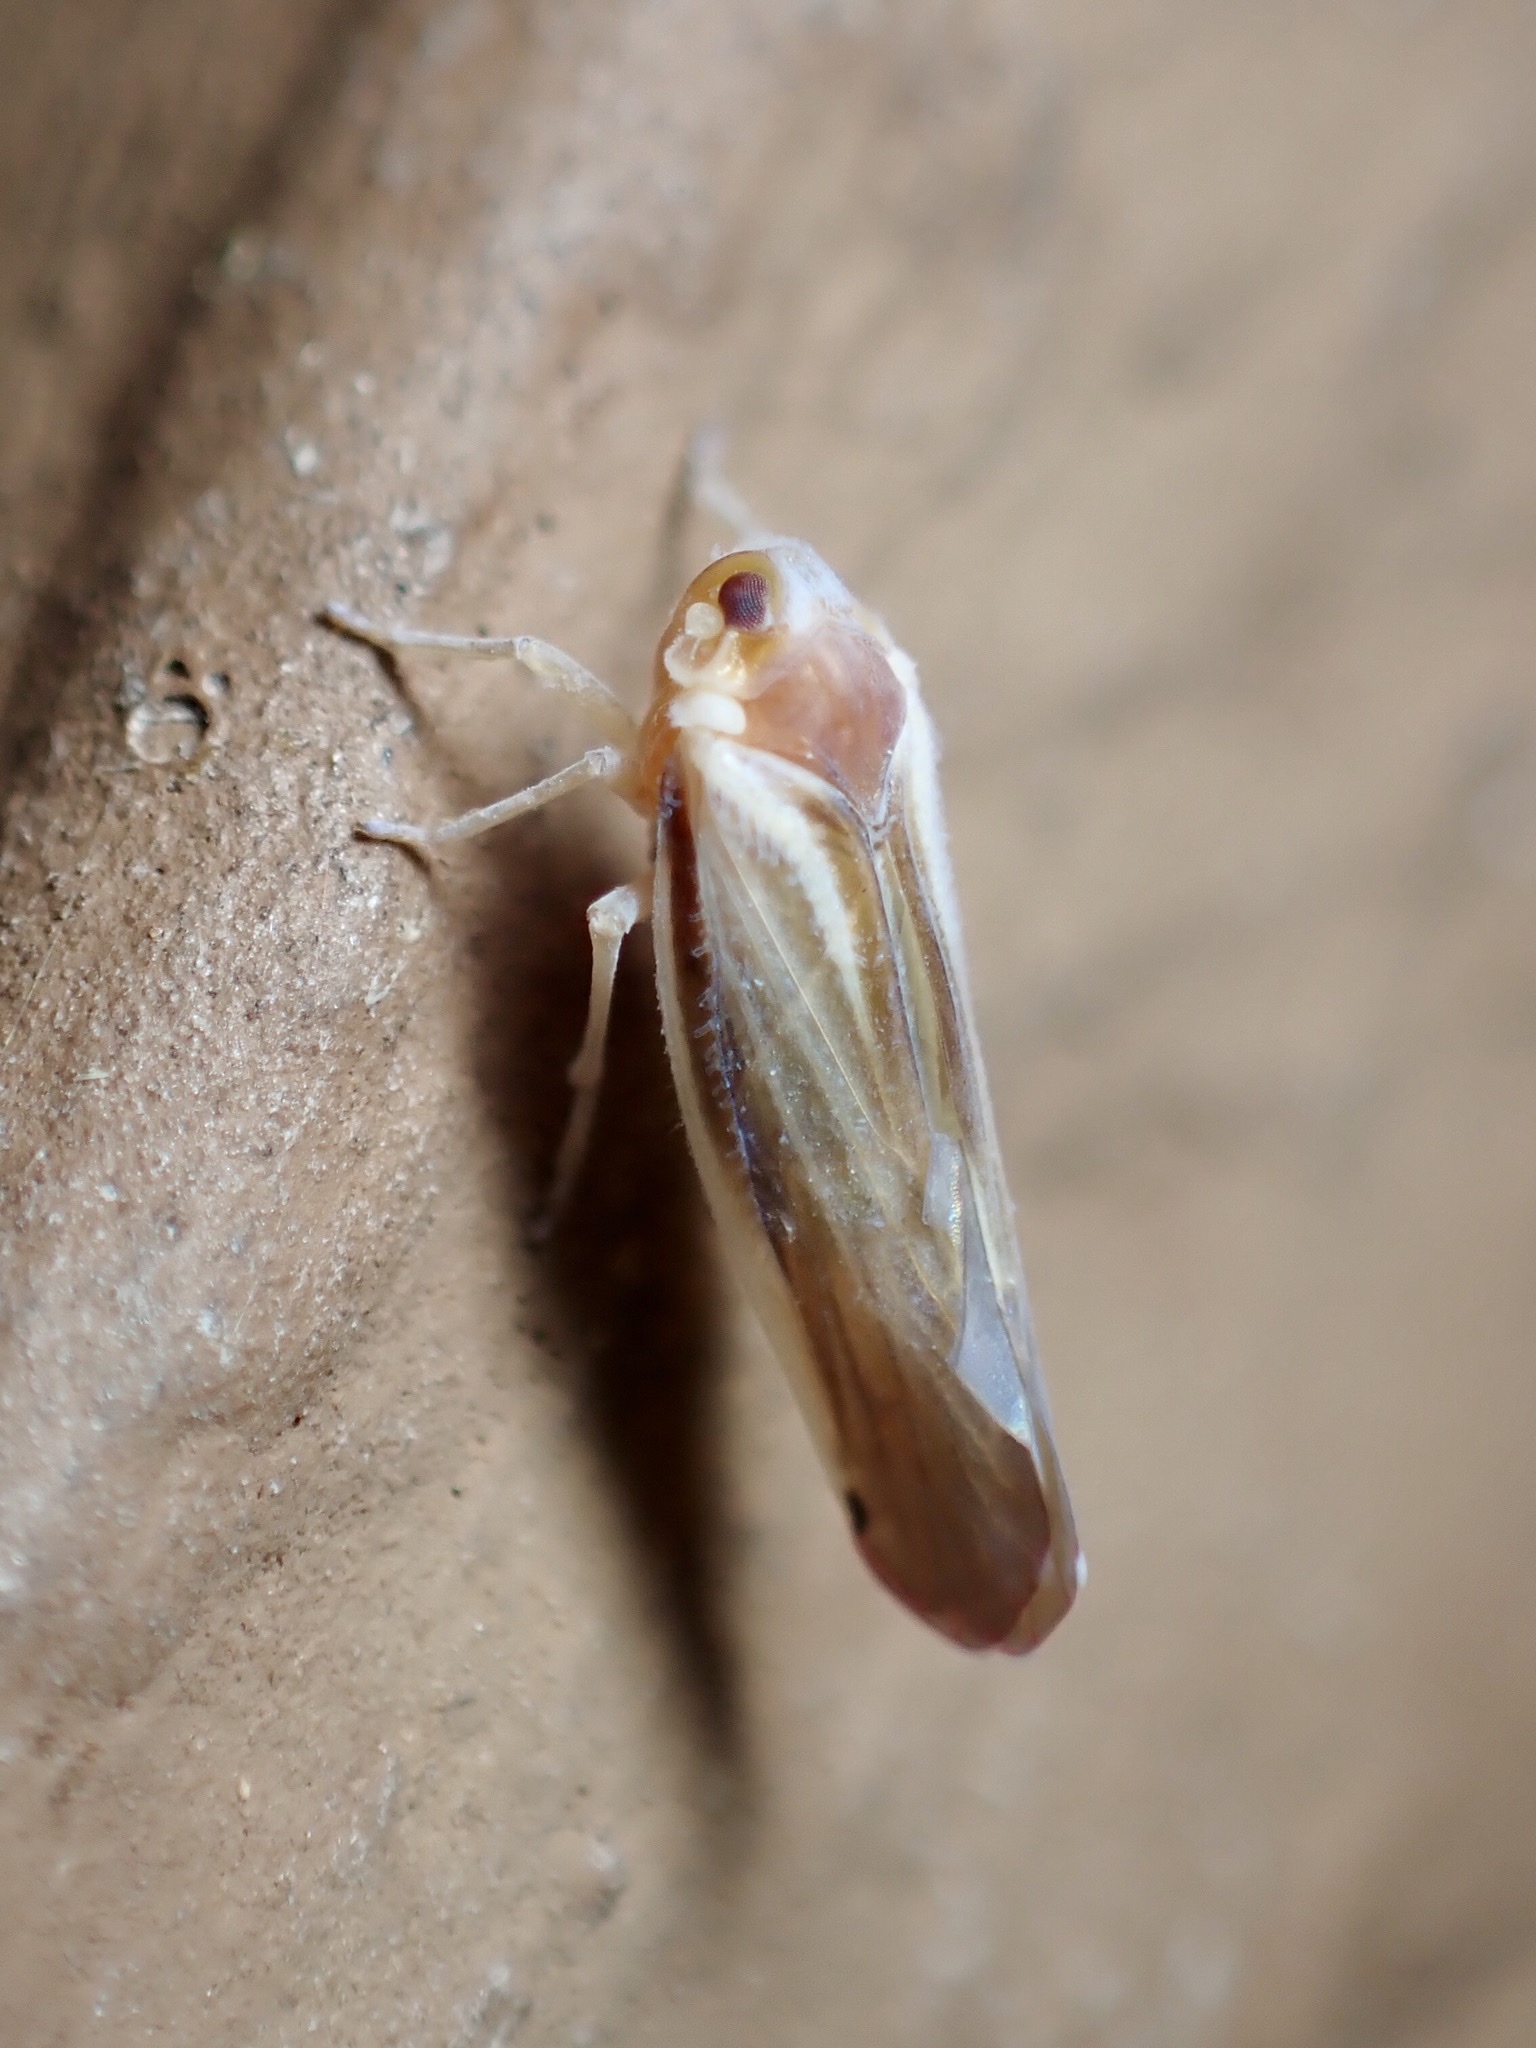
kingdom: Animalia
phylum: Arthropoda
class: Insecta
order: Hemiptera
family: Derbidae
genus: Omolicna
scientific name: Omolicna uhleri
